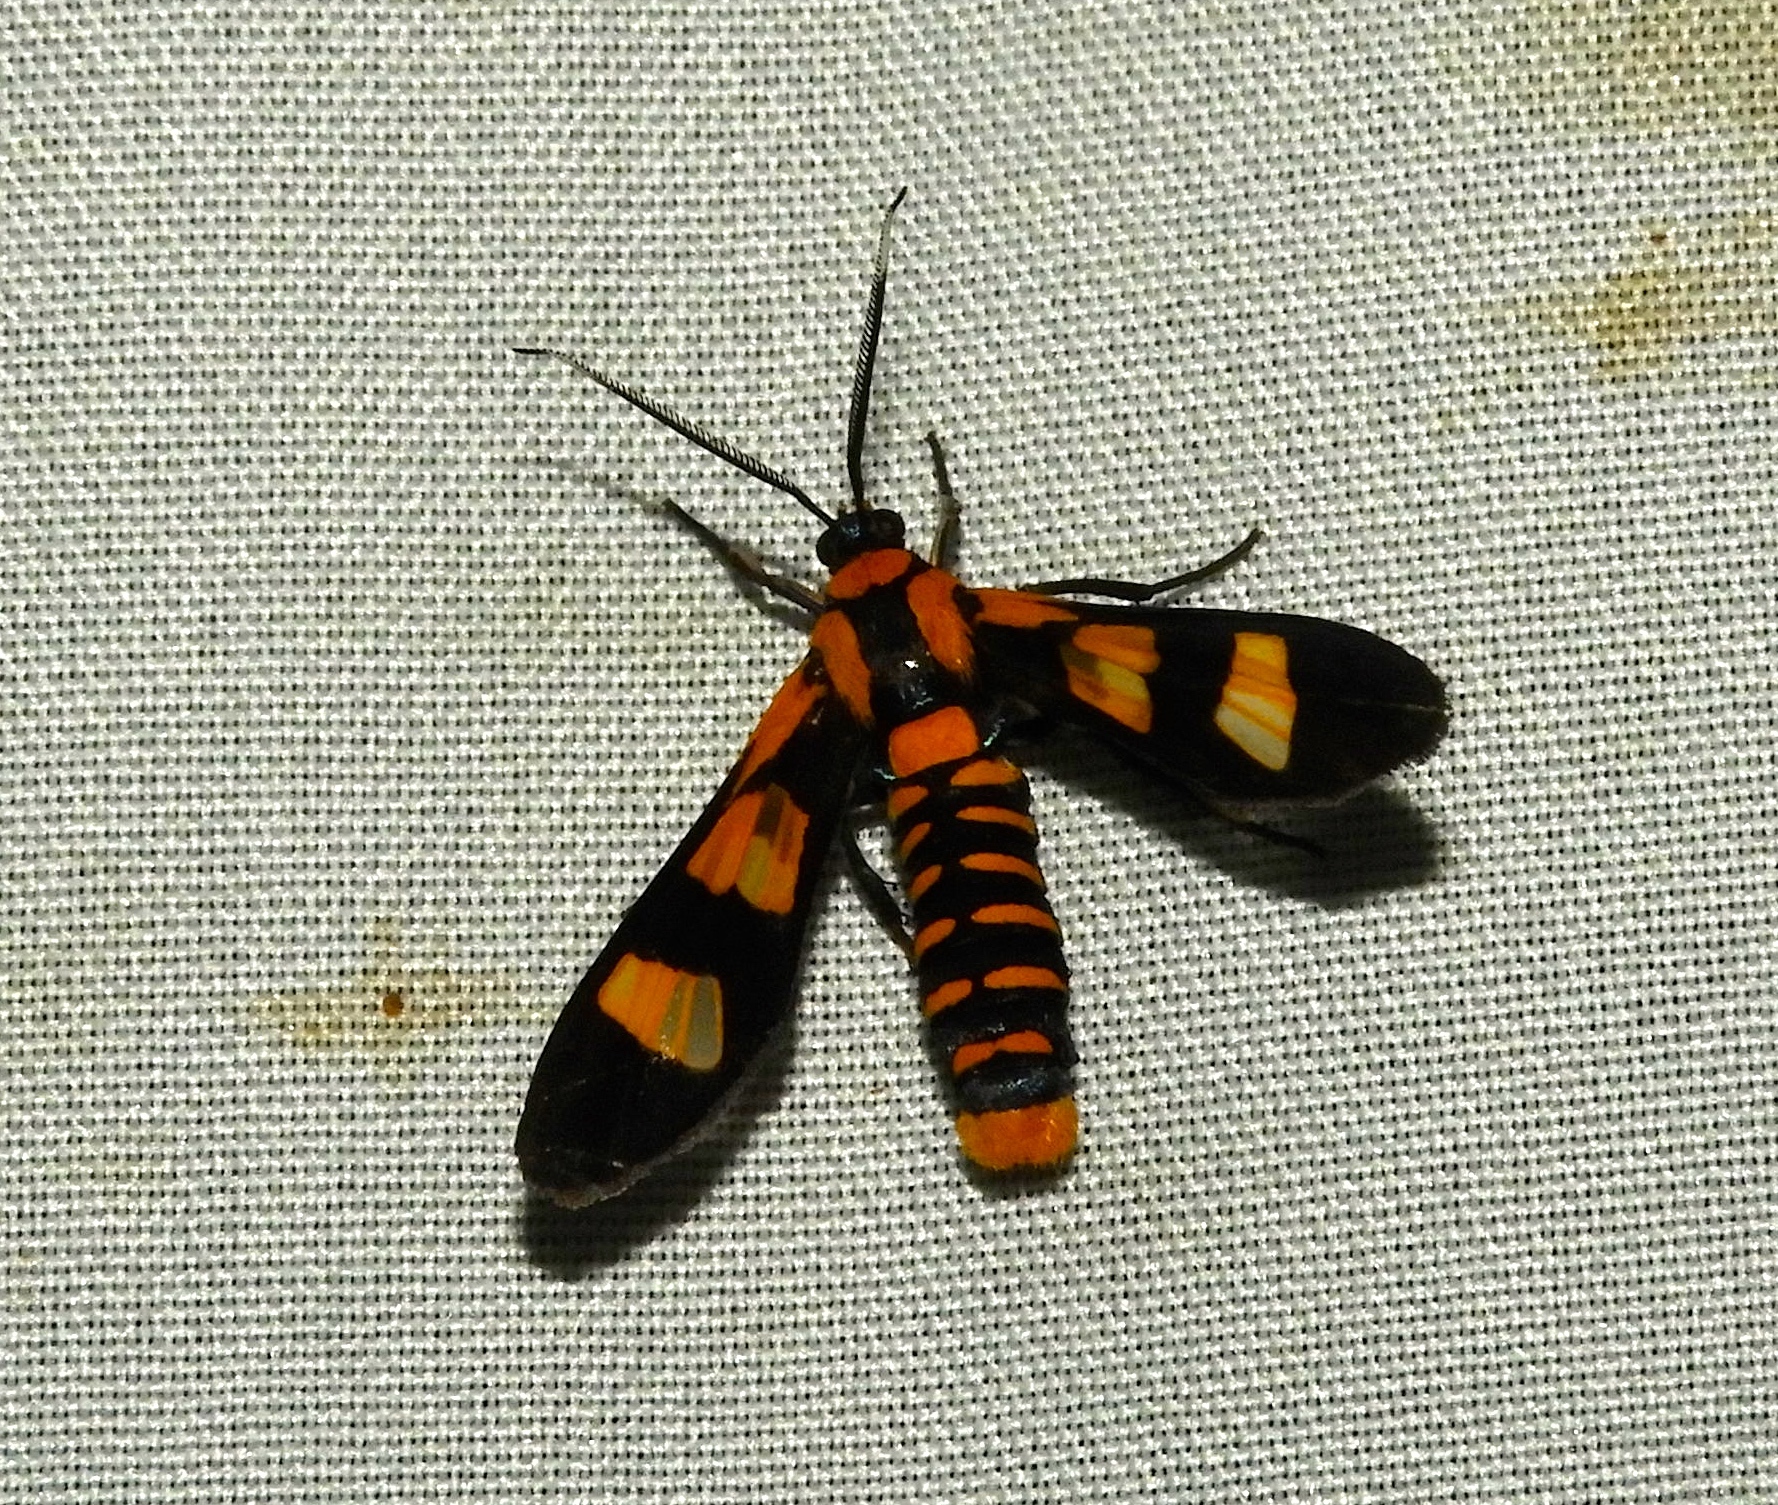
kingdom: Animalia
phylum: Arthropoda
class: Insecta
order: Lepidoptera
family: Erebidae
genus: Phoenicoprocta
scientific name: Phoenicoprocta hampsonii
